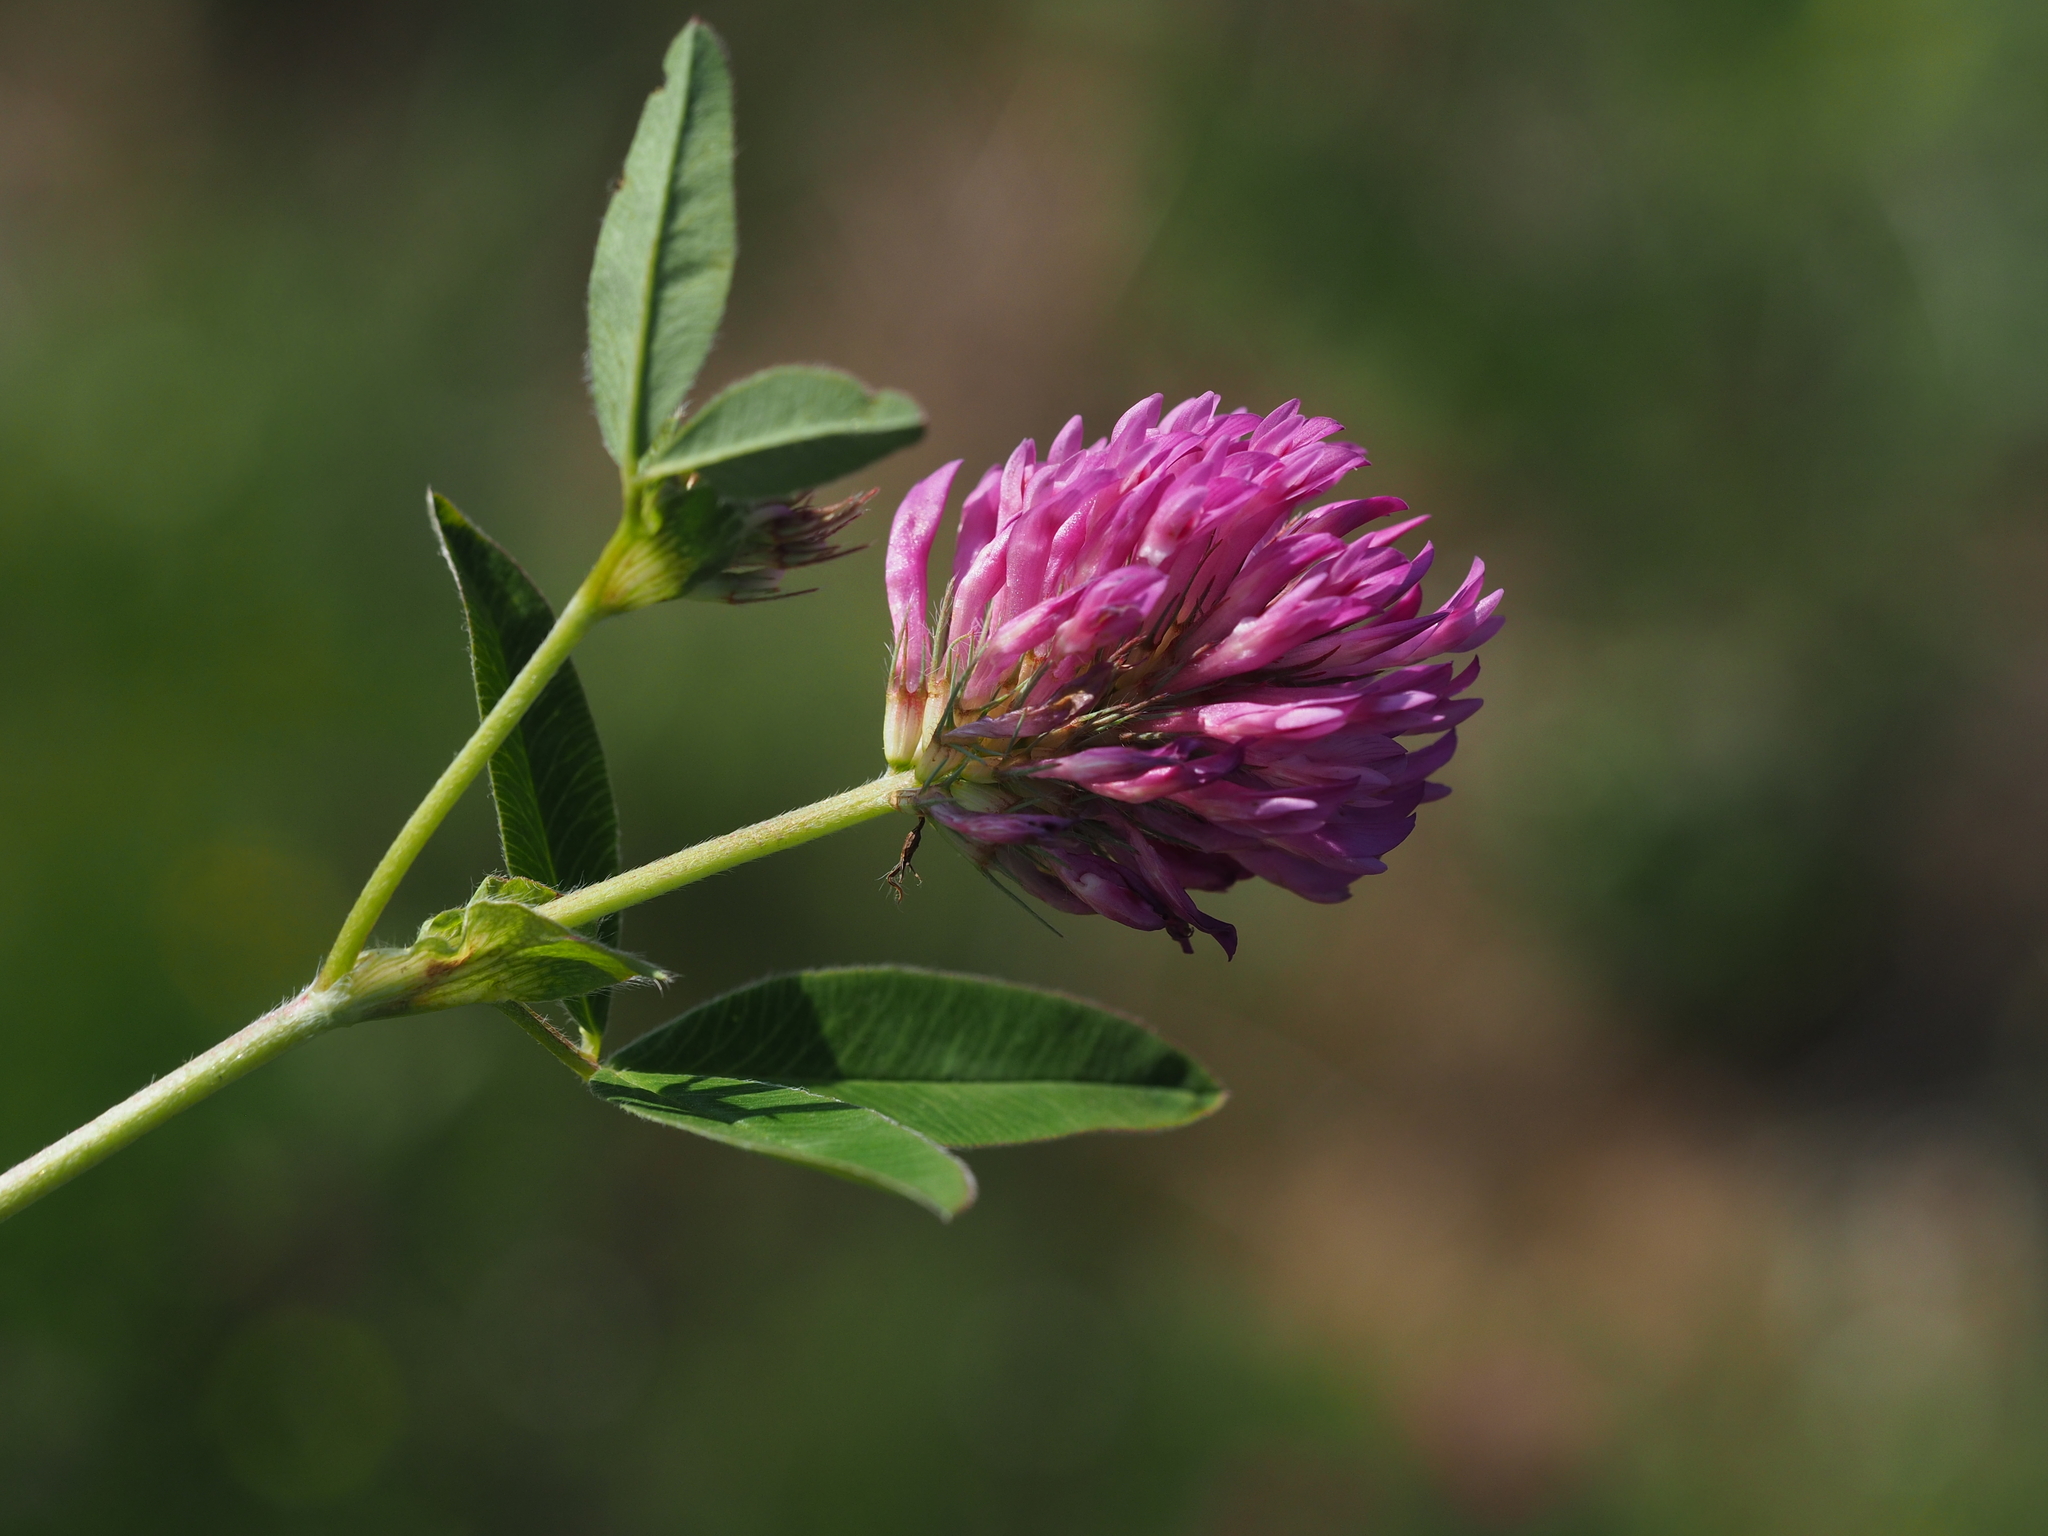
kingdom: Plantae
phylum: Tracheophyta
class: Magnoliopsida
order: Fabales
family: Fabaceae
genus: Trifolium
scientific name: Trifolium medium
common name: Zigzag clover
